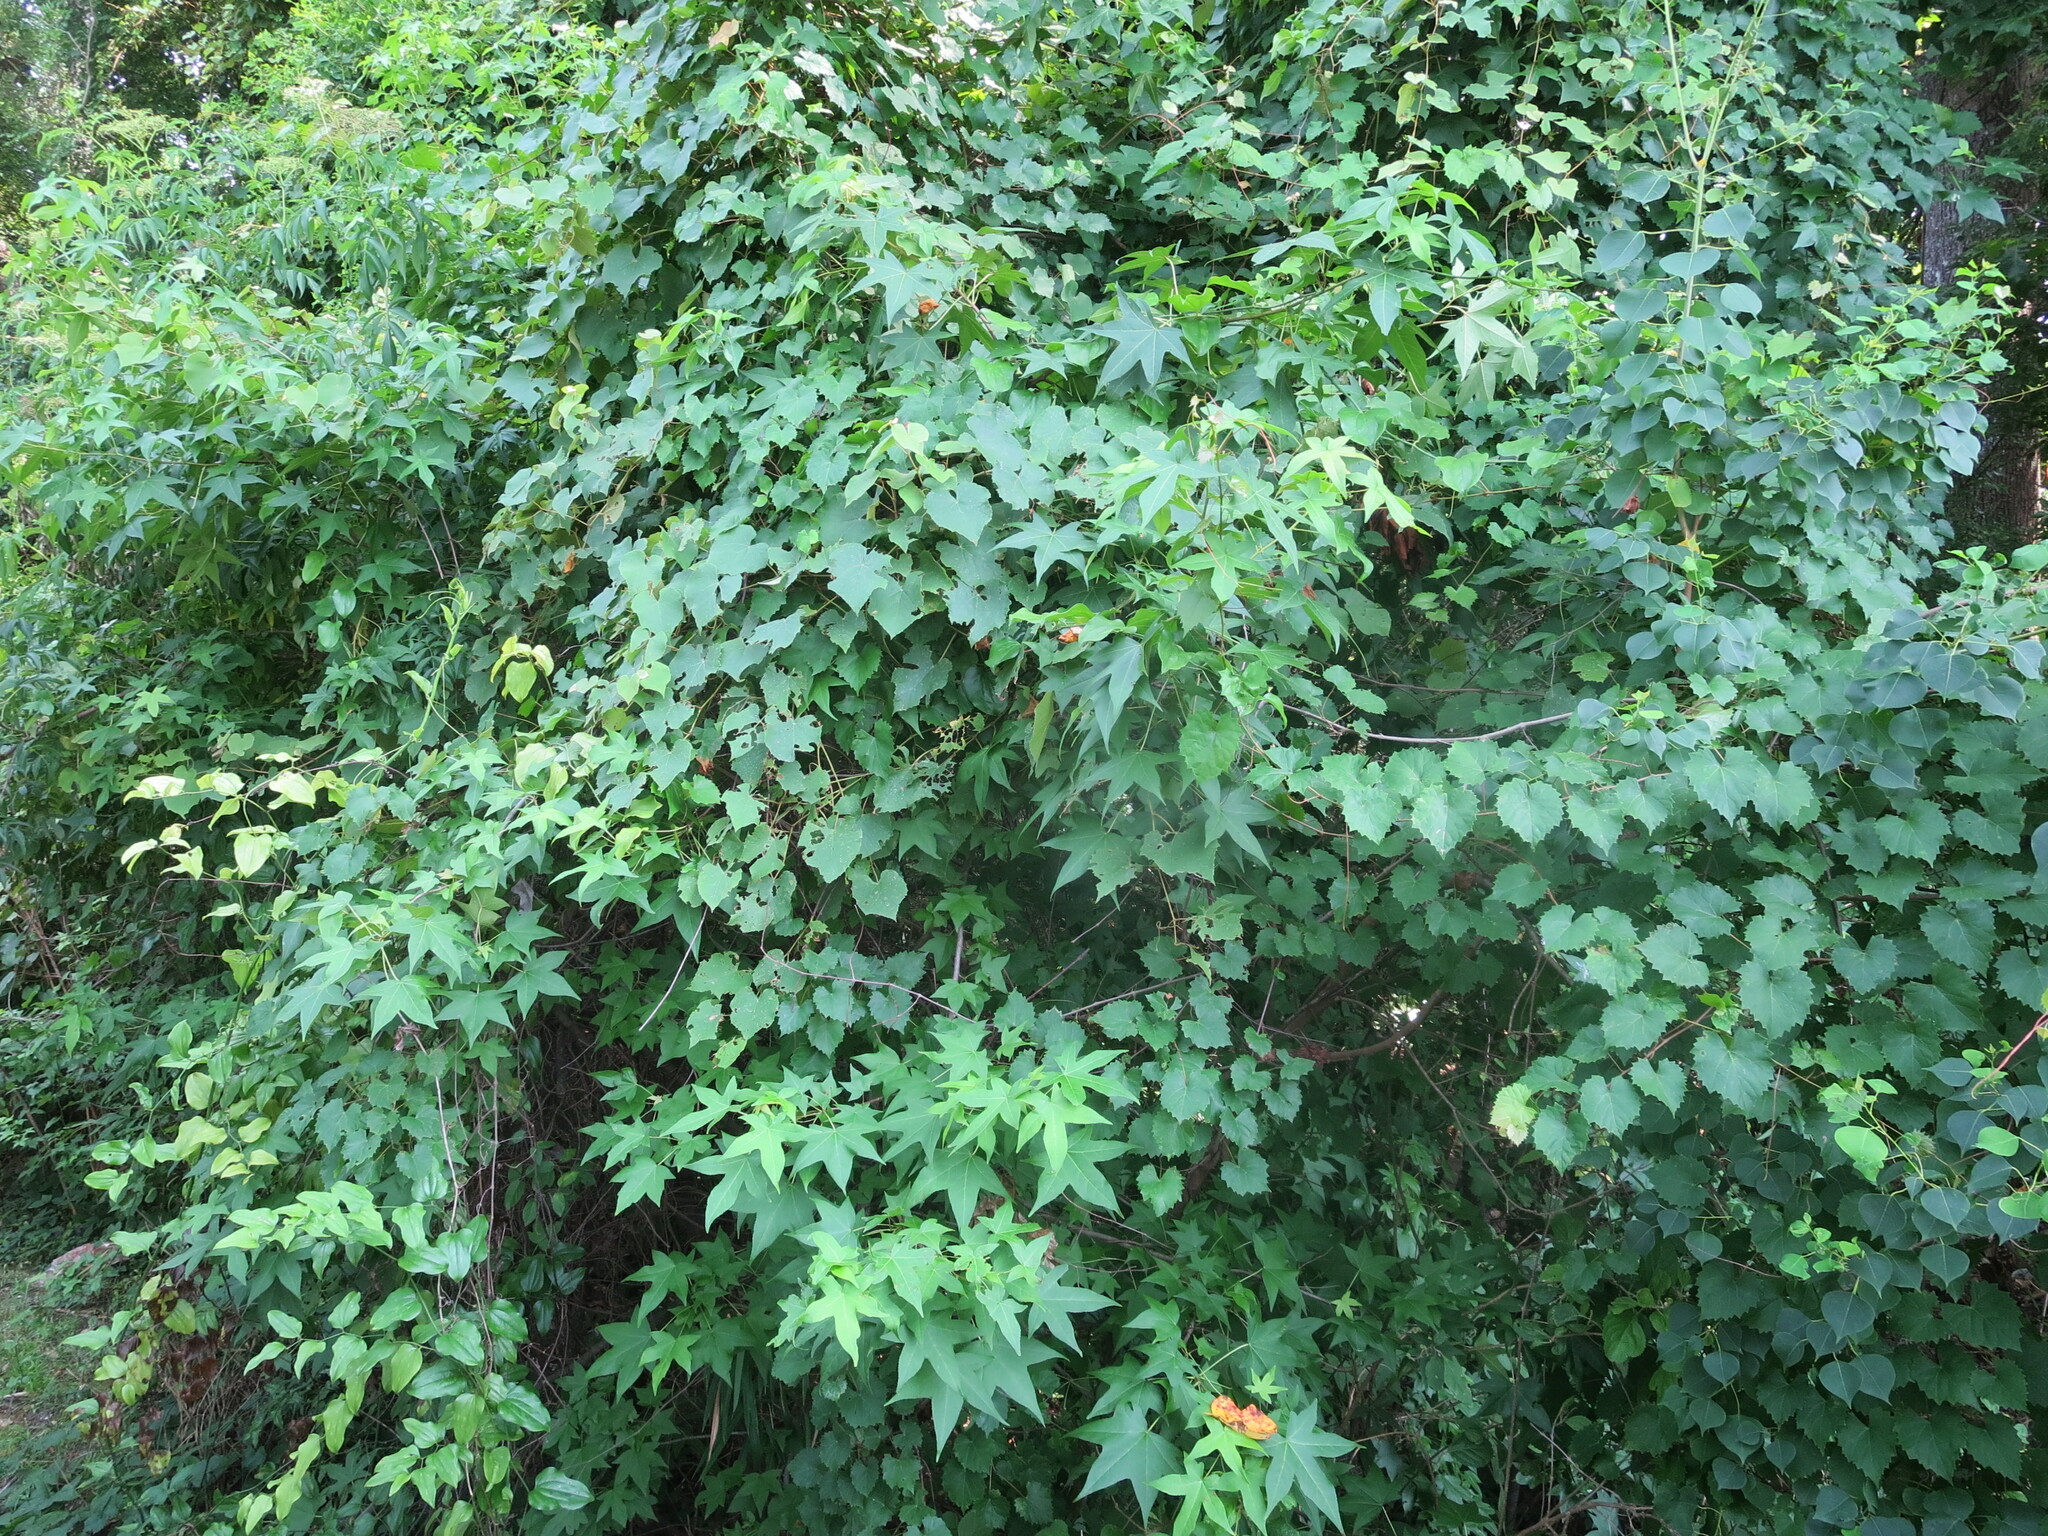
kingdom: Plantae
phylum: Tracheophyta
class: Magnoliopsida
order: Saxifragales
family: Altingiaceae
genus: Liquidambar
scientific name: Liquidambar styraciflua
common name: Sweet gum
